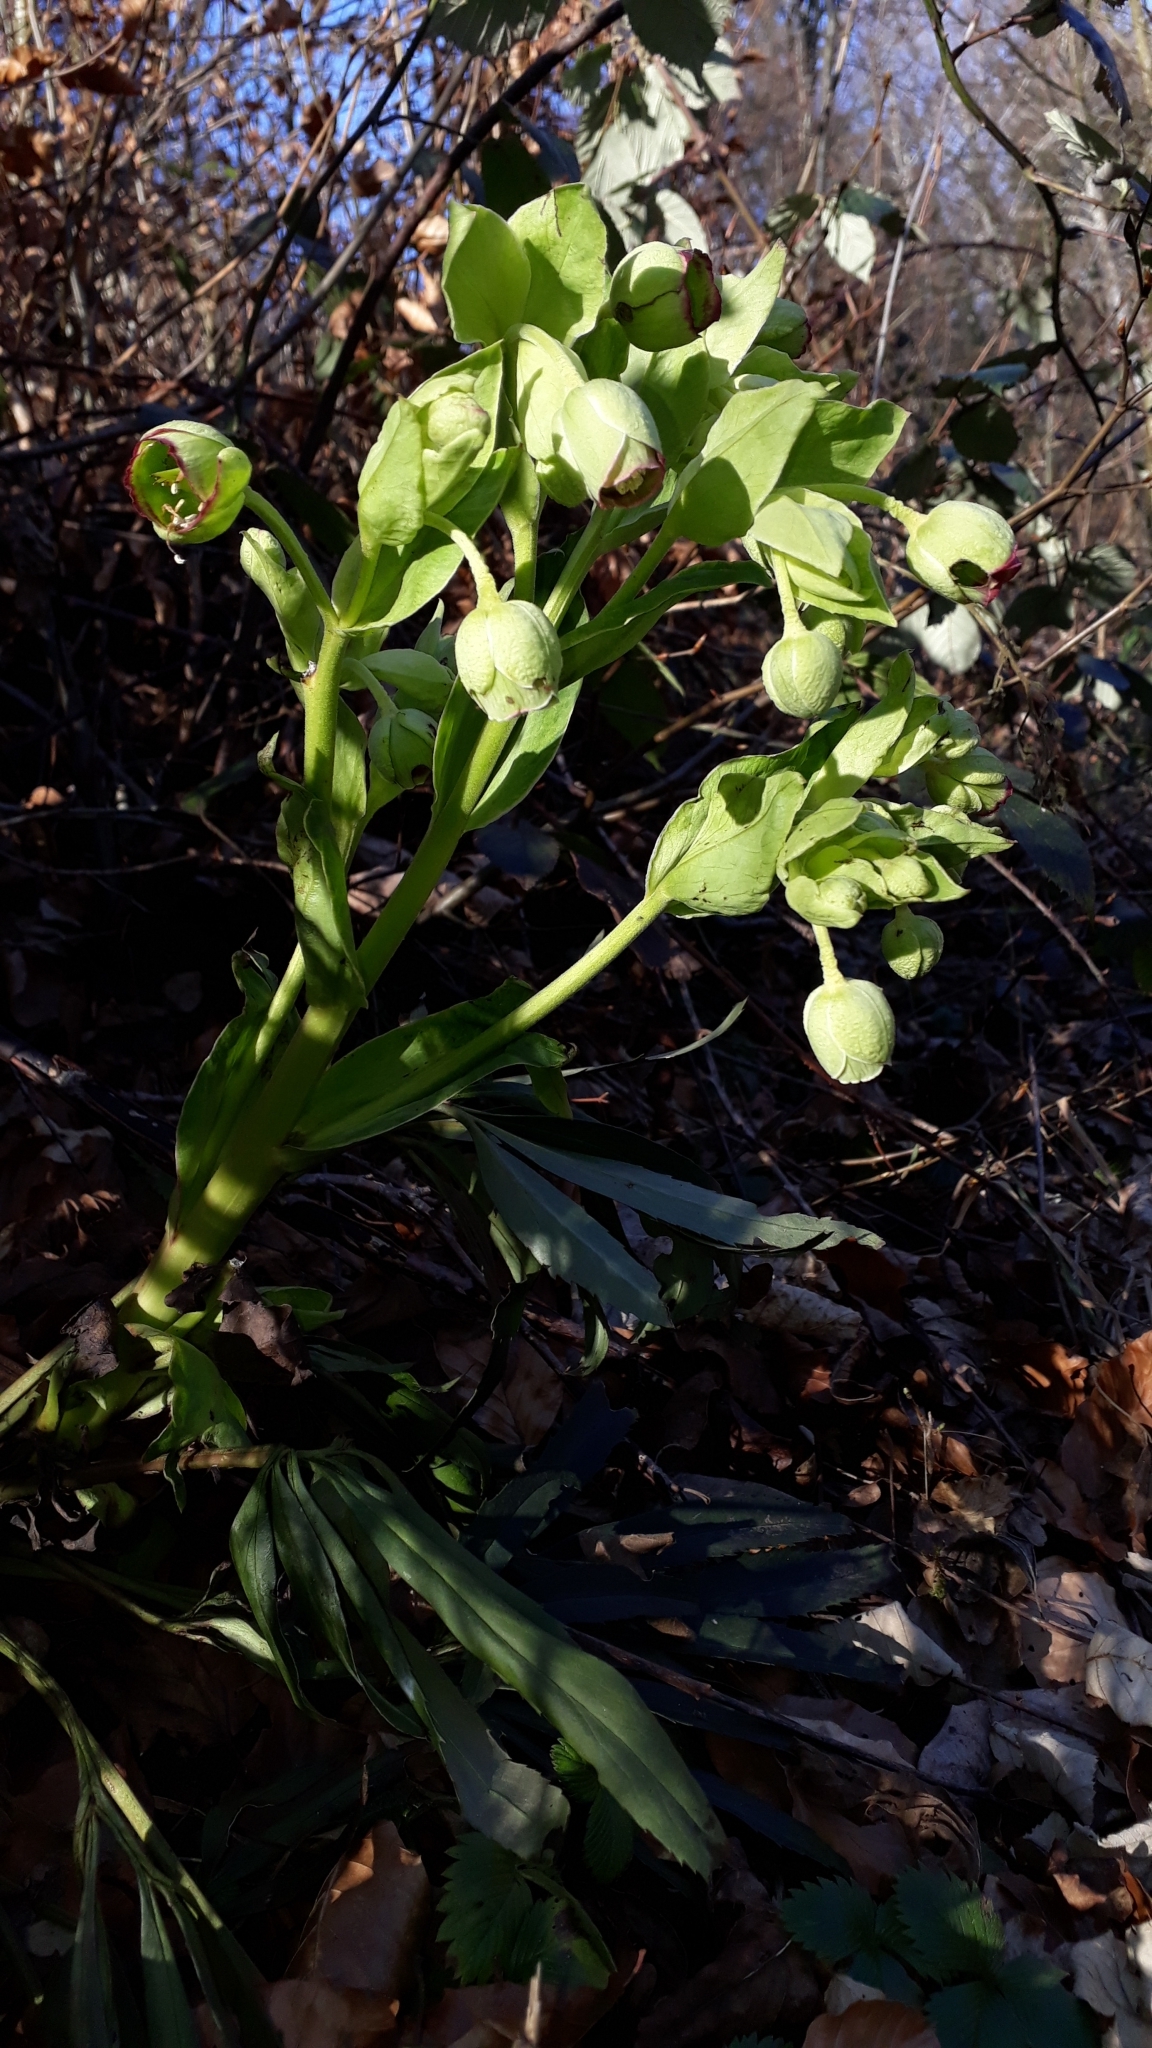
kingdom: Plantae
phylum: Tracheophyta
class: Magnoliopsida
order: Ranunculales
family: Ranunculaceae
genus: Helleborus
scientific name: Helleborus foetidus
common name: Stinking hellebore
